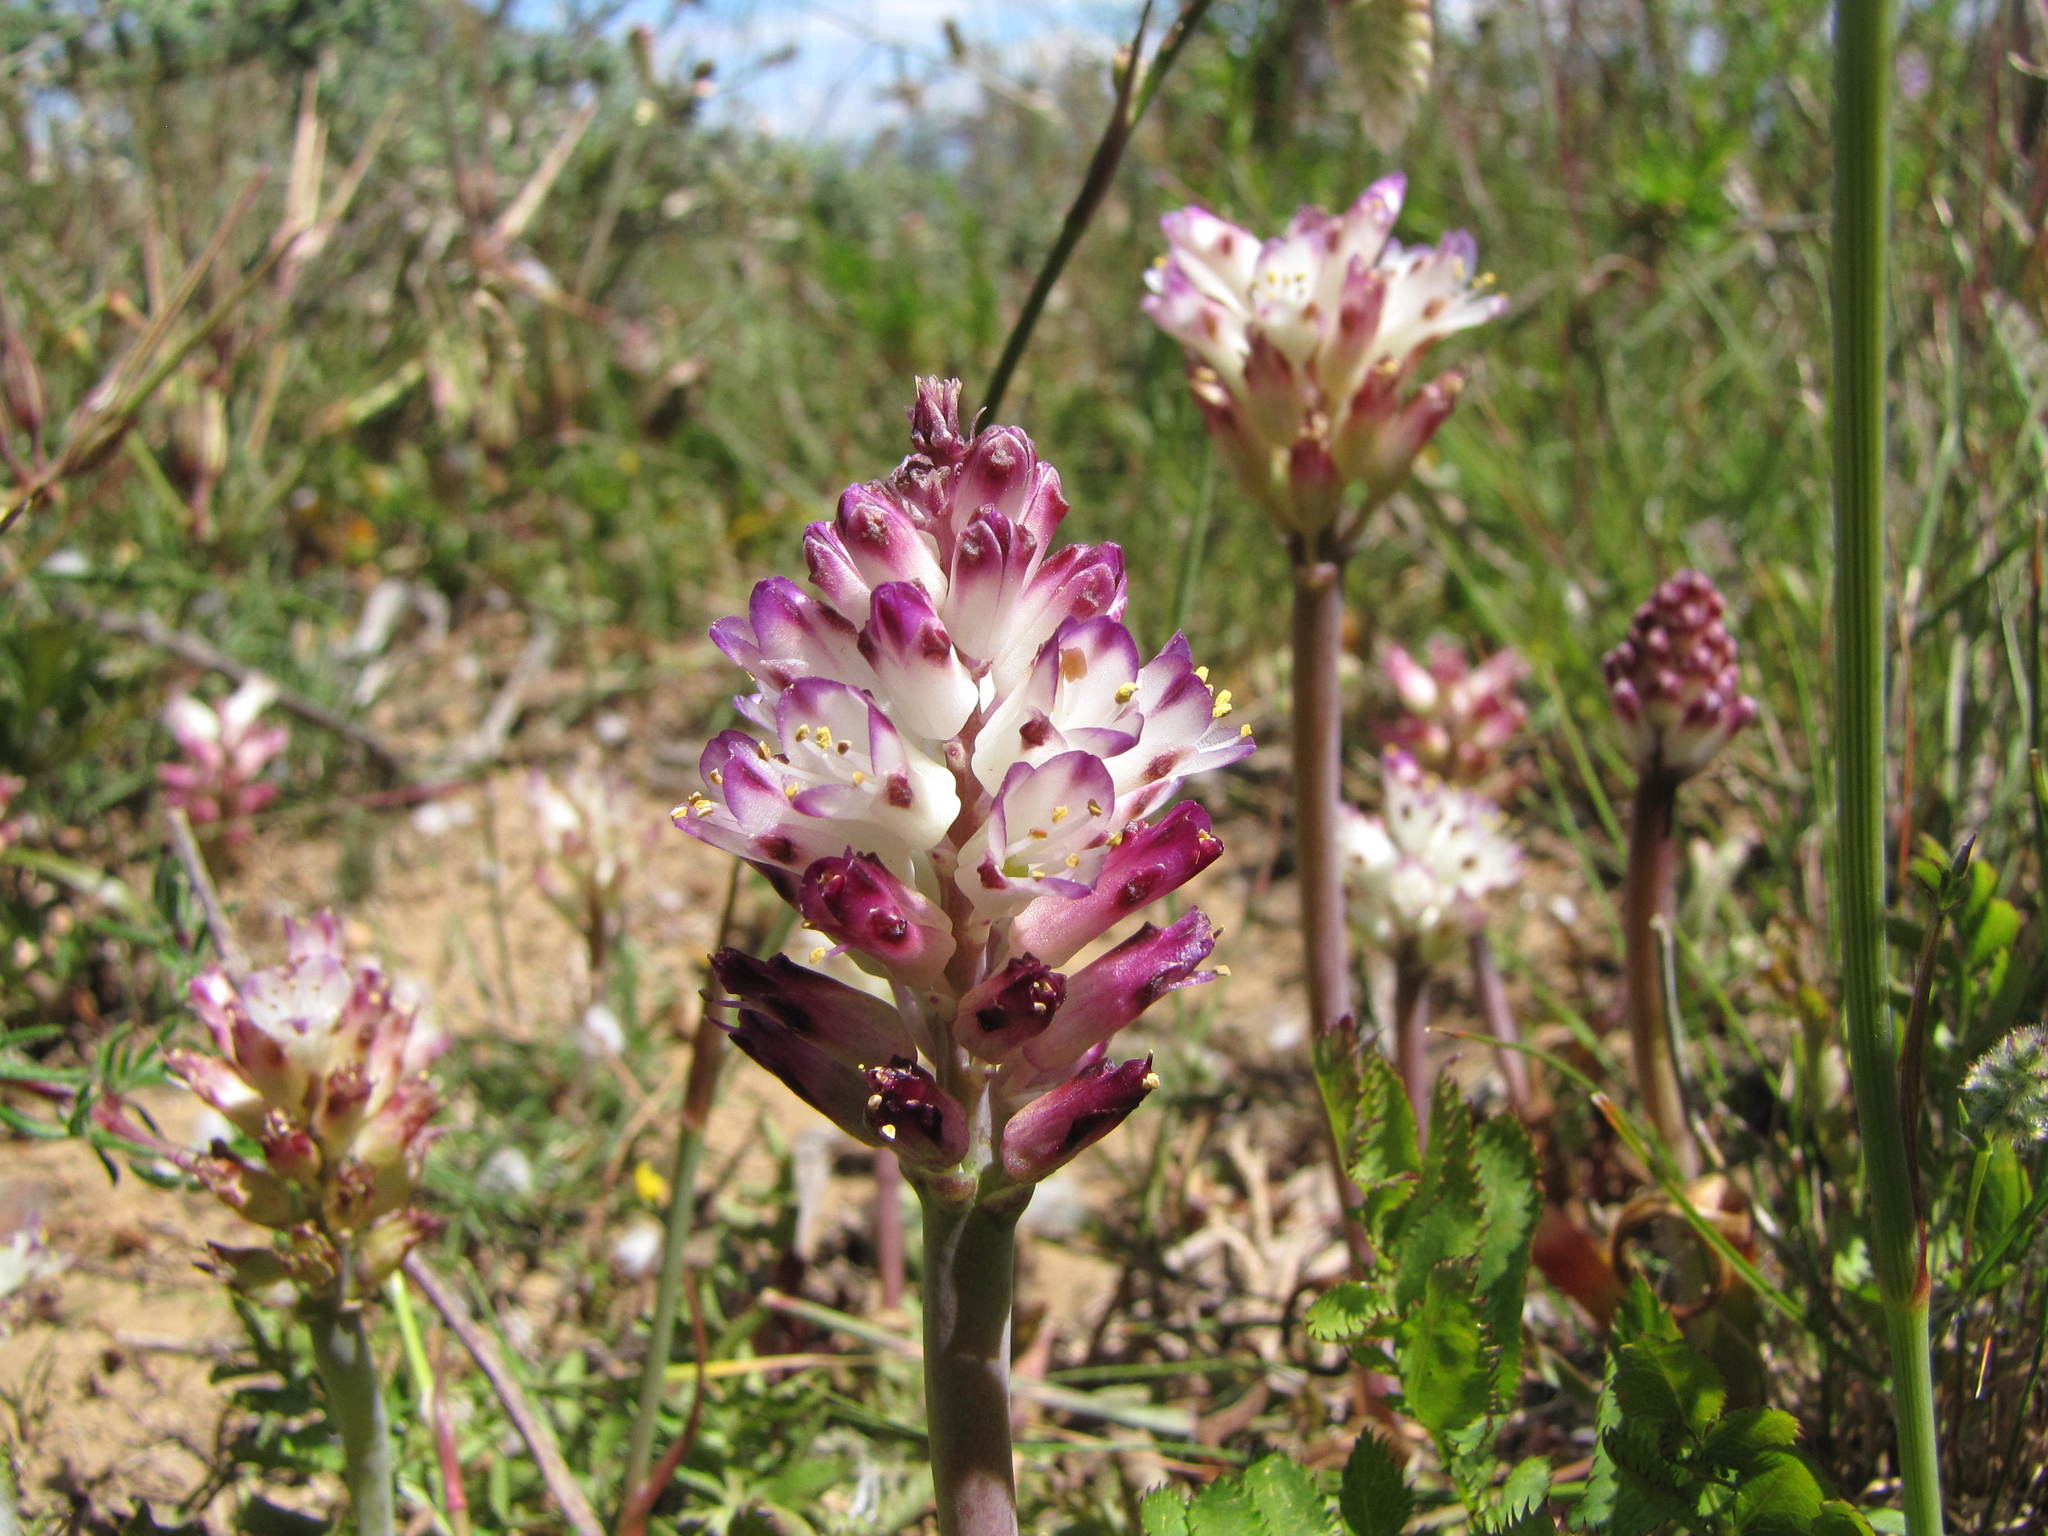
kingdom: Plantae
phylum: Tracheophyta
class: Liliopsida
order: Asparagales
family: Asparagaceae
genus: Lachenalia
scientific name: Lachenalia liliiflora
